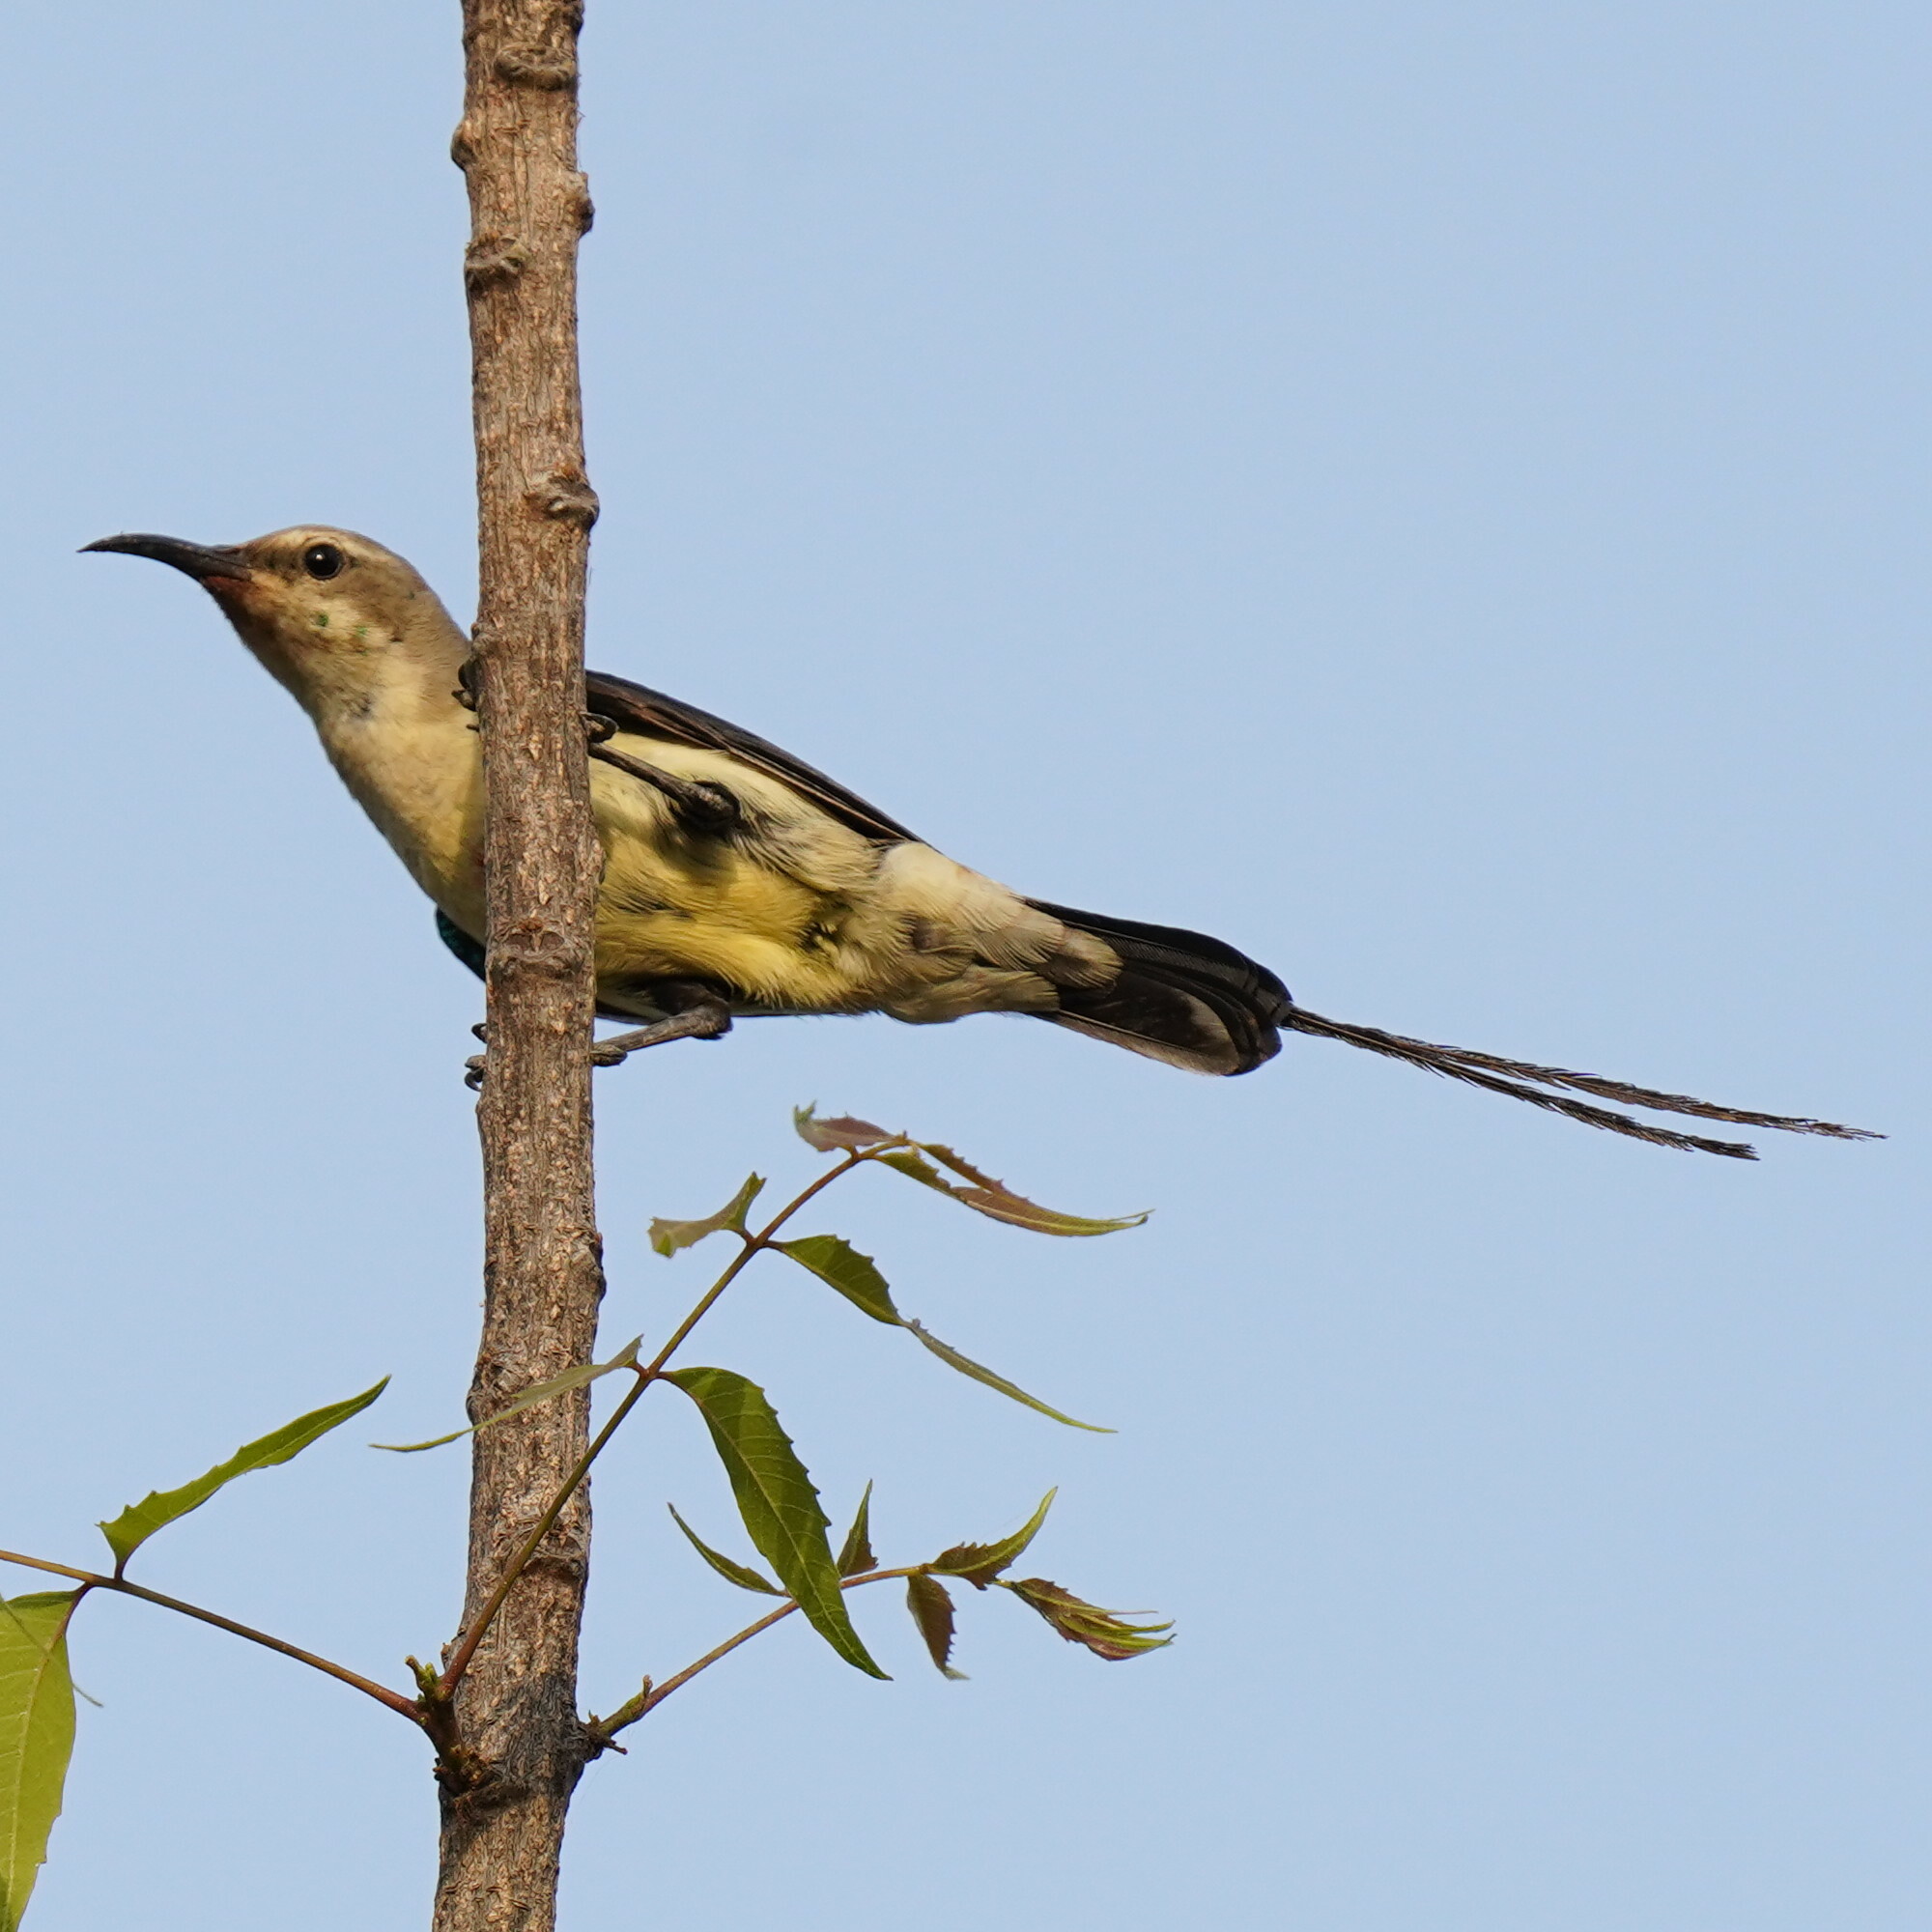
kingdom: Animalia
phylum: Chordata
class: Aves
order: Passeriformes
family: Nectariniidae
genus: Cinnyris
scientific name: Cinnyris pulchellus
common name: Beautiful sunbird
